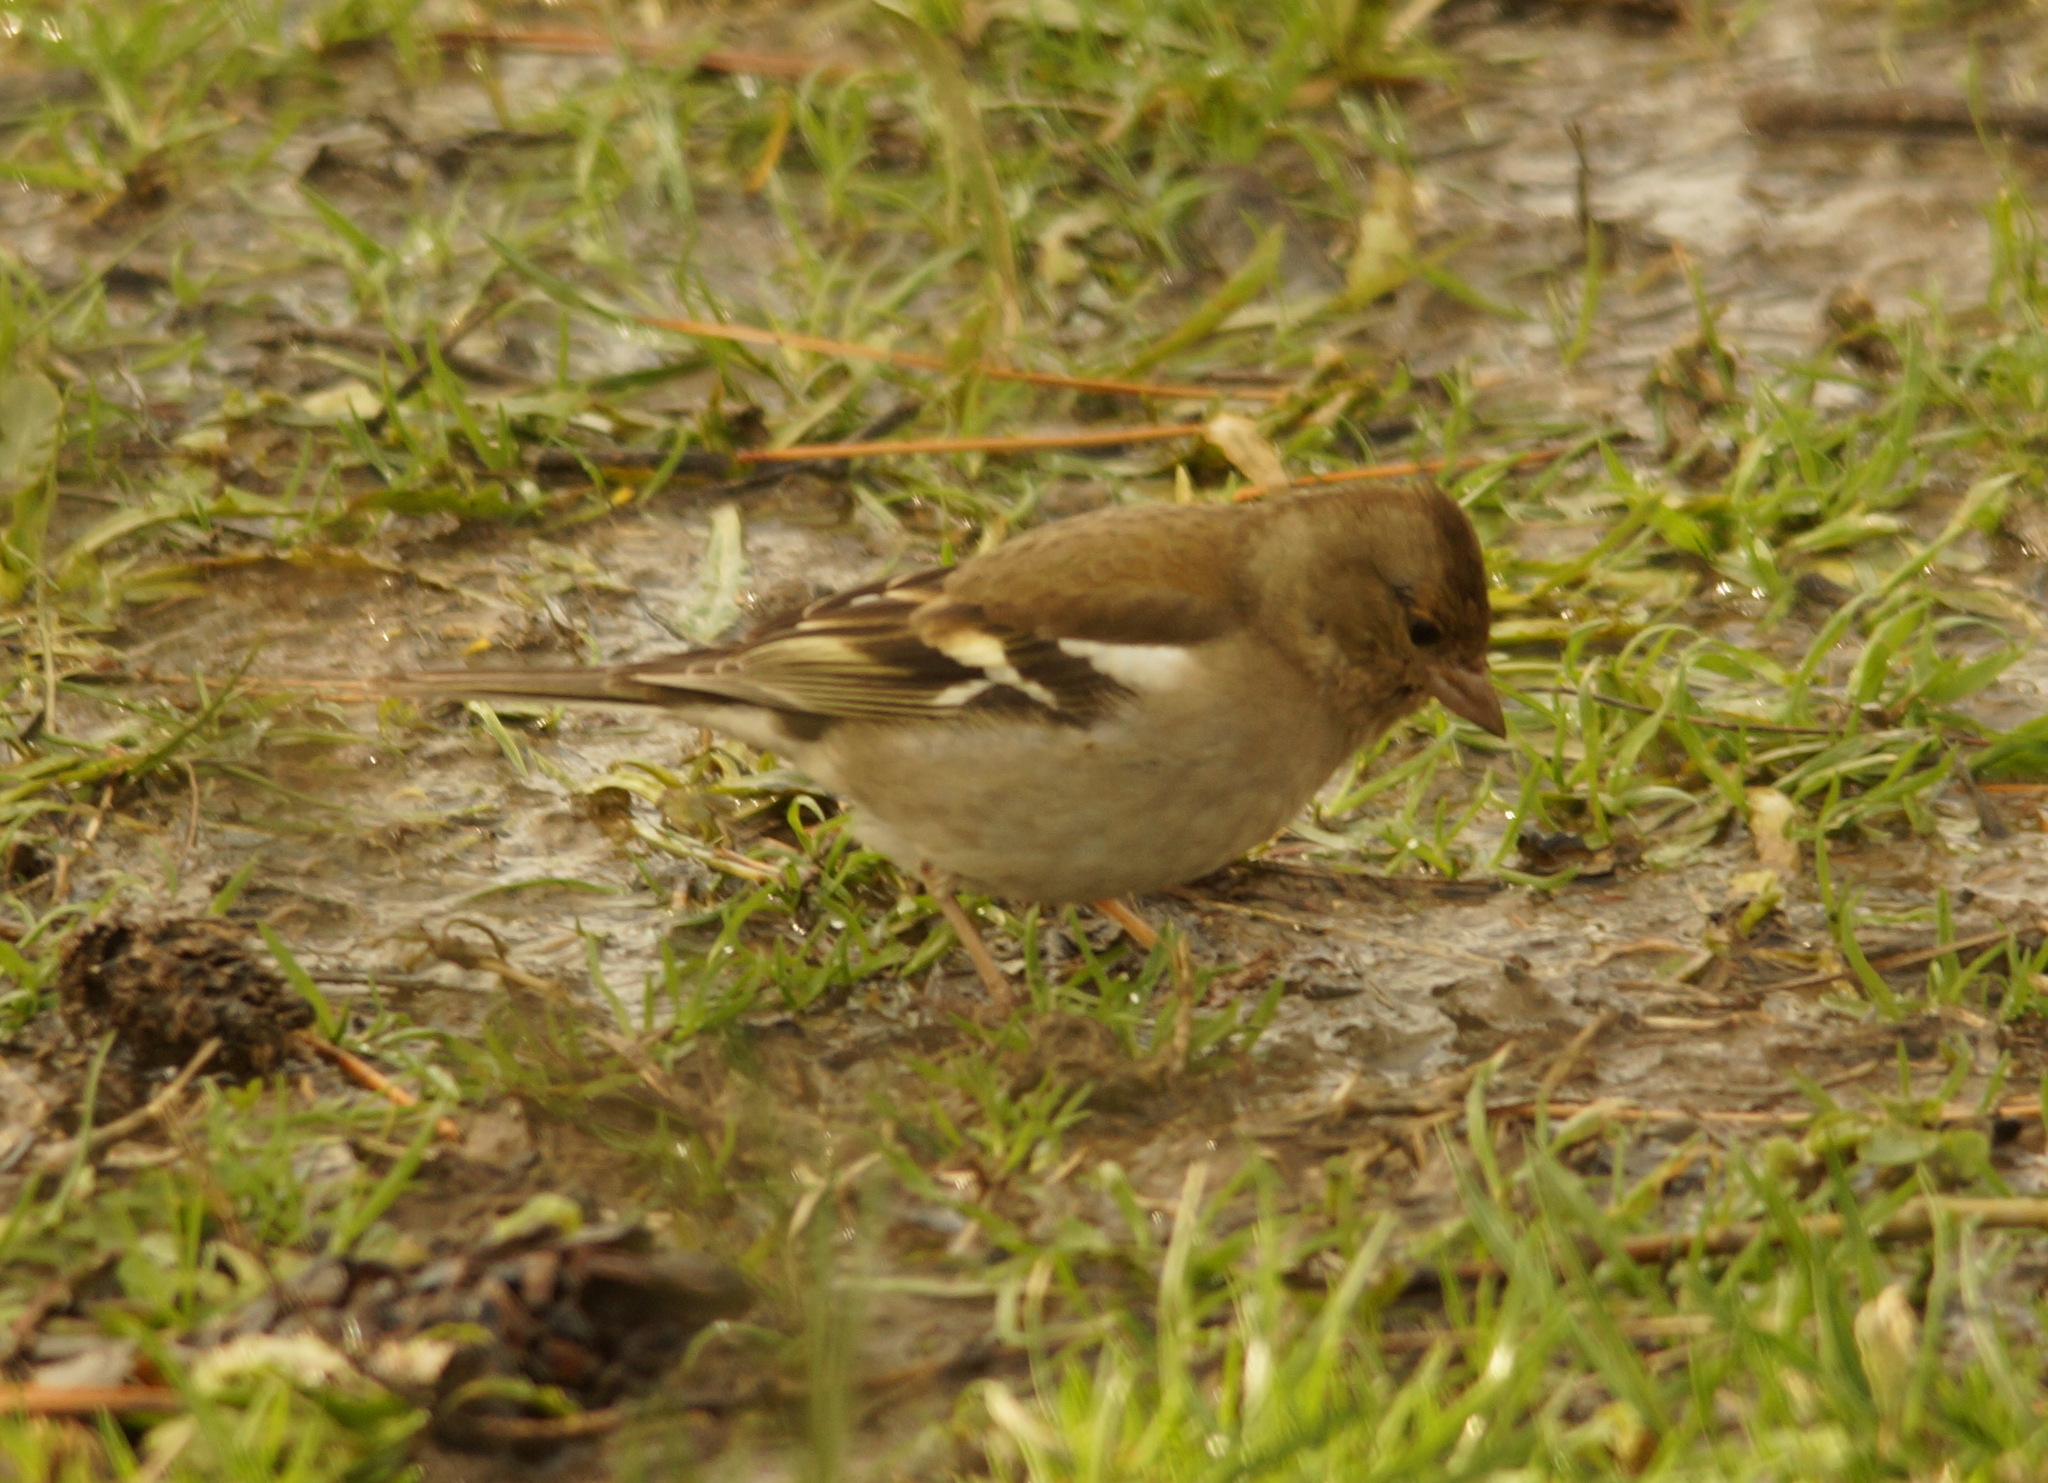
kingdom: Animalia
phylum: Chordata
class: Aves
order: Passeriformes
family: Fringillidae
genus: Fringilla
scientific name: Fringilla coelebs
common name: Common chaffinch
